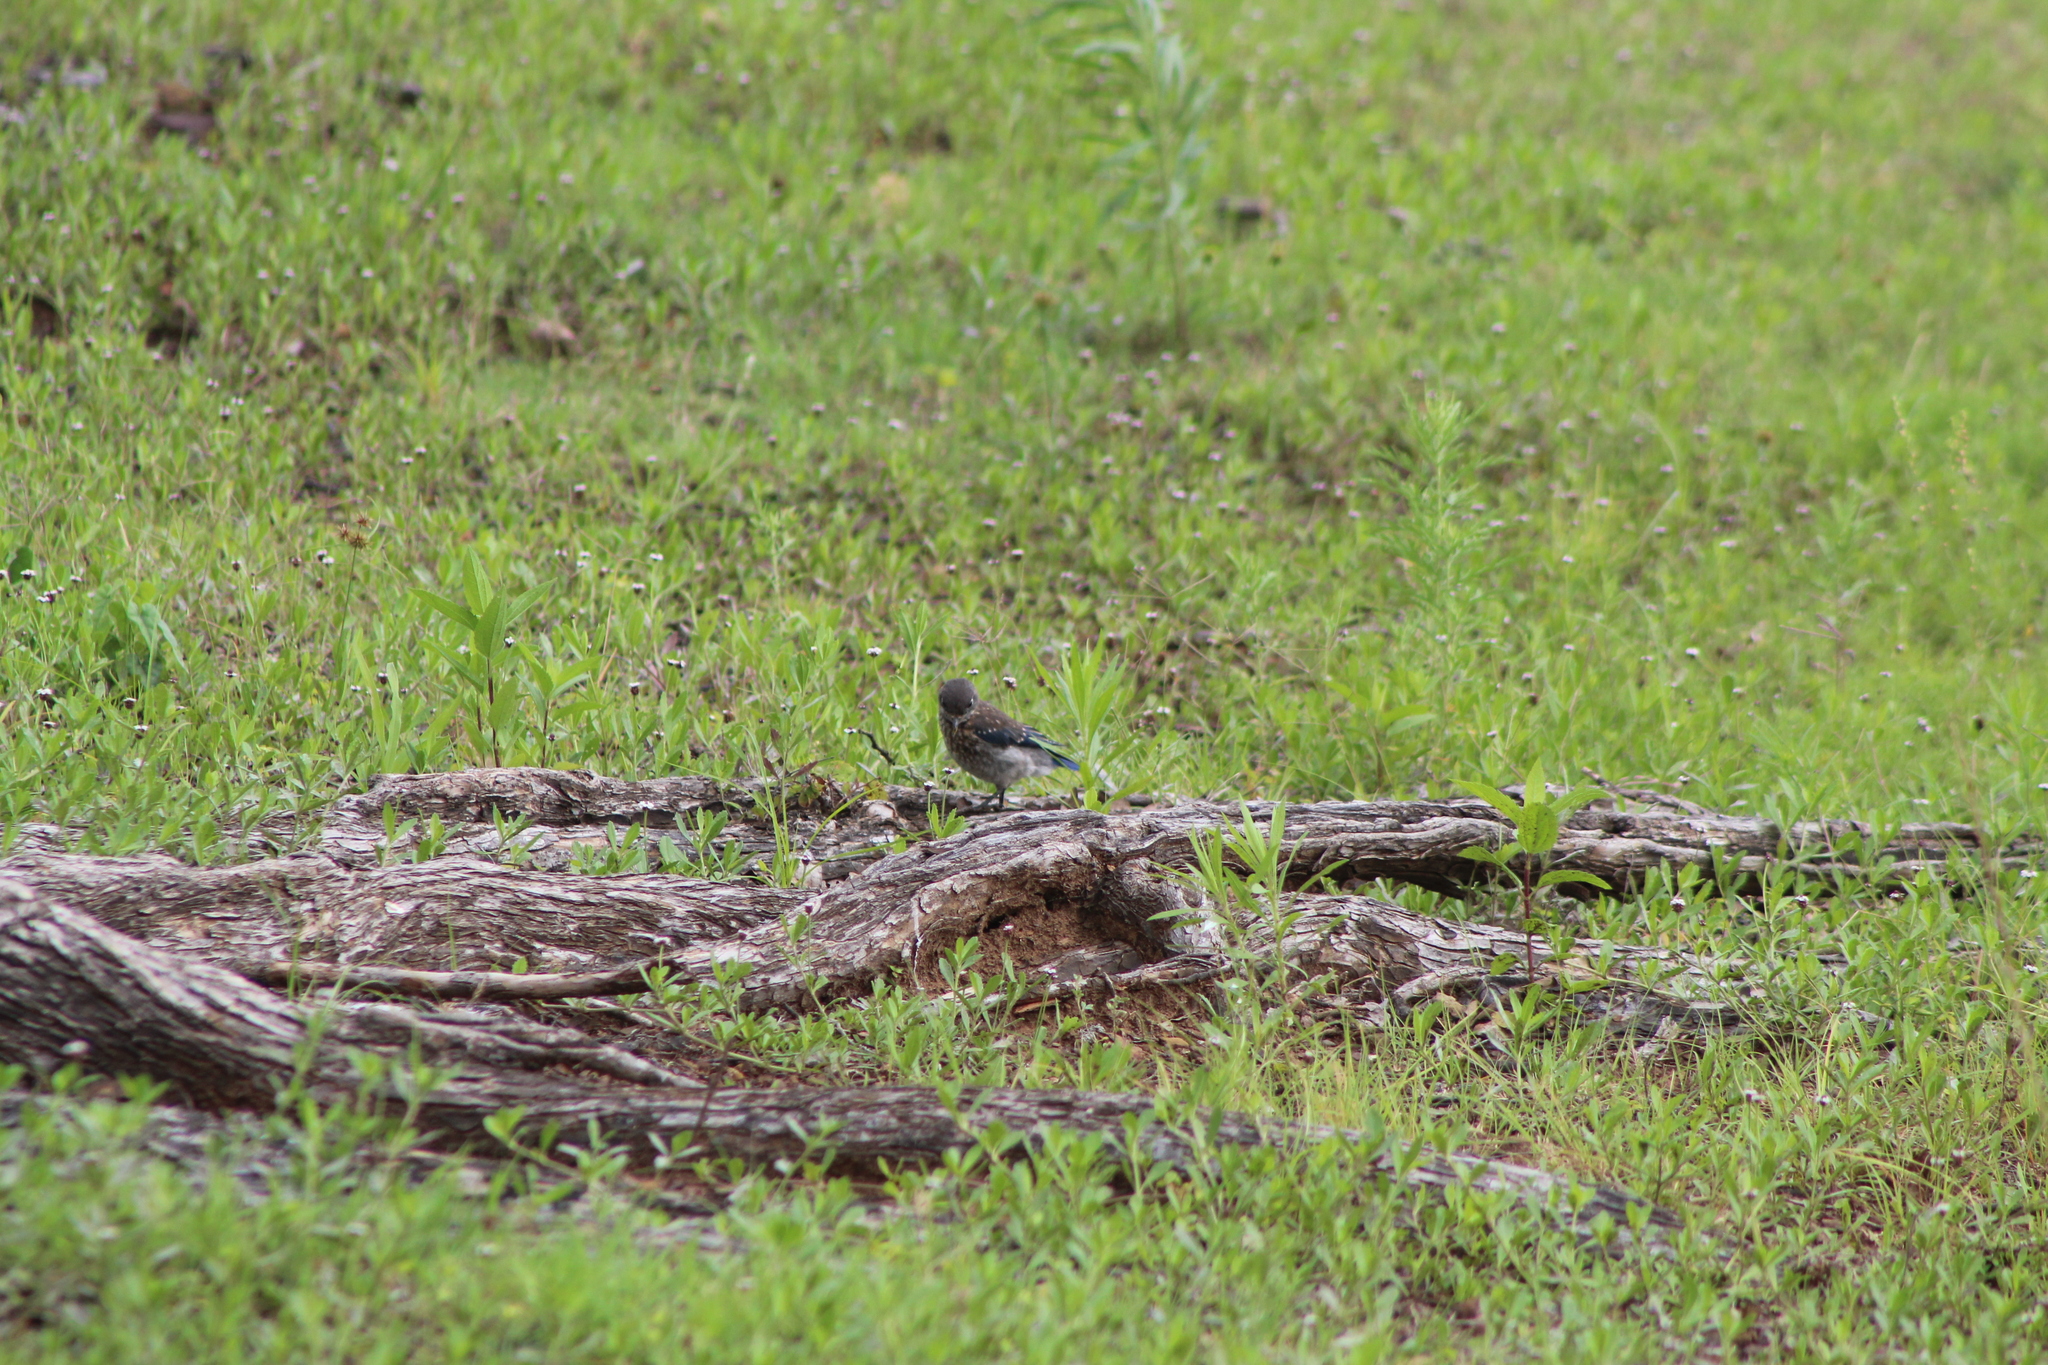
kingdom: Animalia
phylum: Chordata
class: Aves
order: Passeriformes
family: Turdidae
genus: Sialia
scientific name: Sialia sialis
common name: Eastern bluebird
